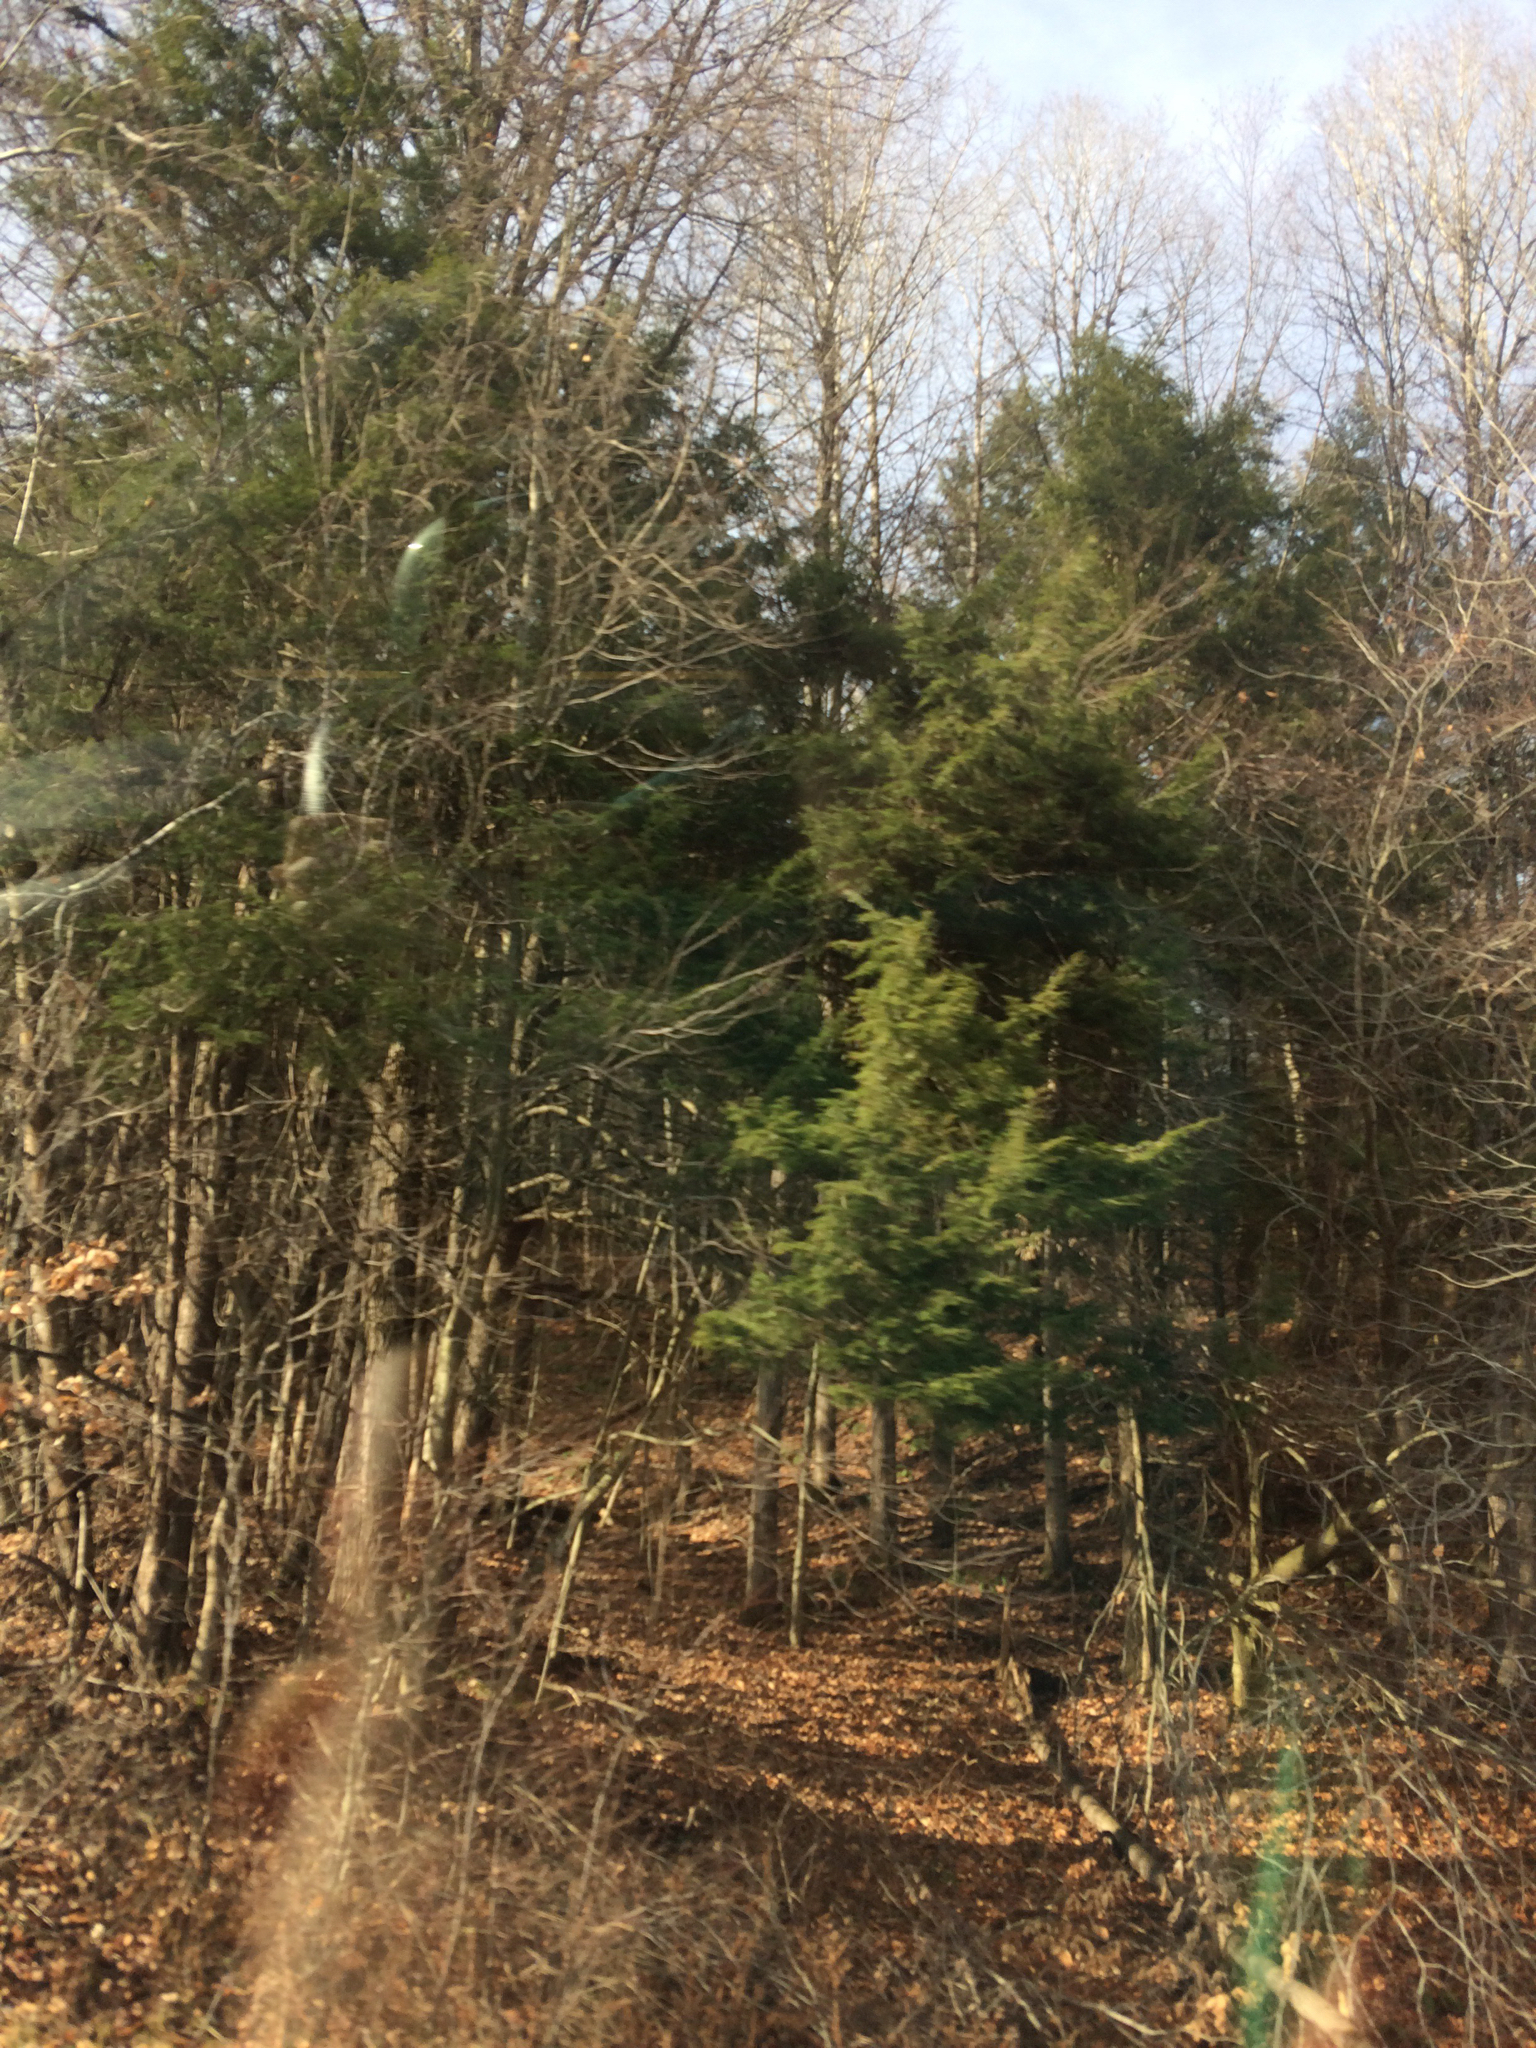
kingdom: Plantae
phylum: Tracheophyta
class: Pinopsida
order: Pinales
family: Pinaceae
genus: Tsuga
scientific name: Tsuga canadensis
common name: Eastern hemlock
